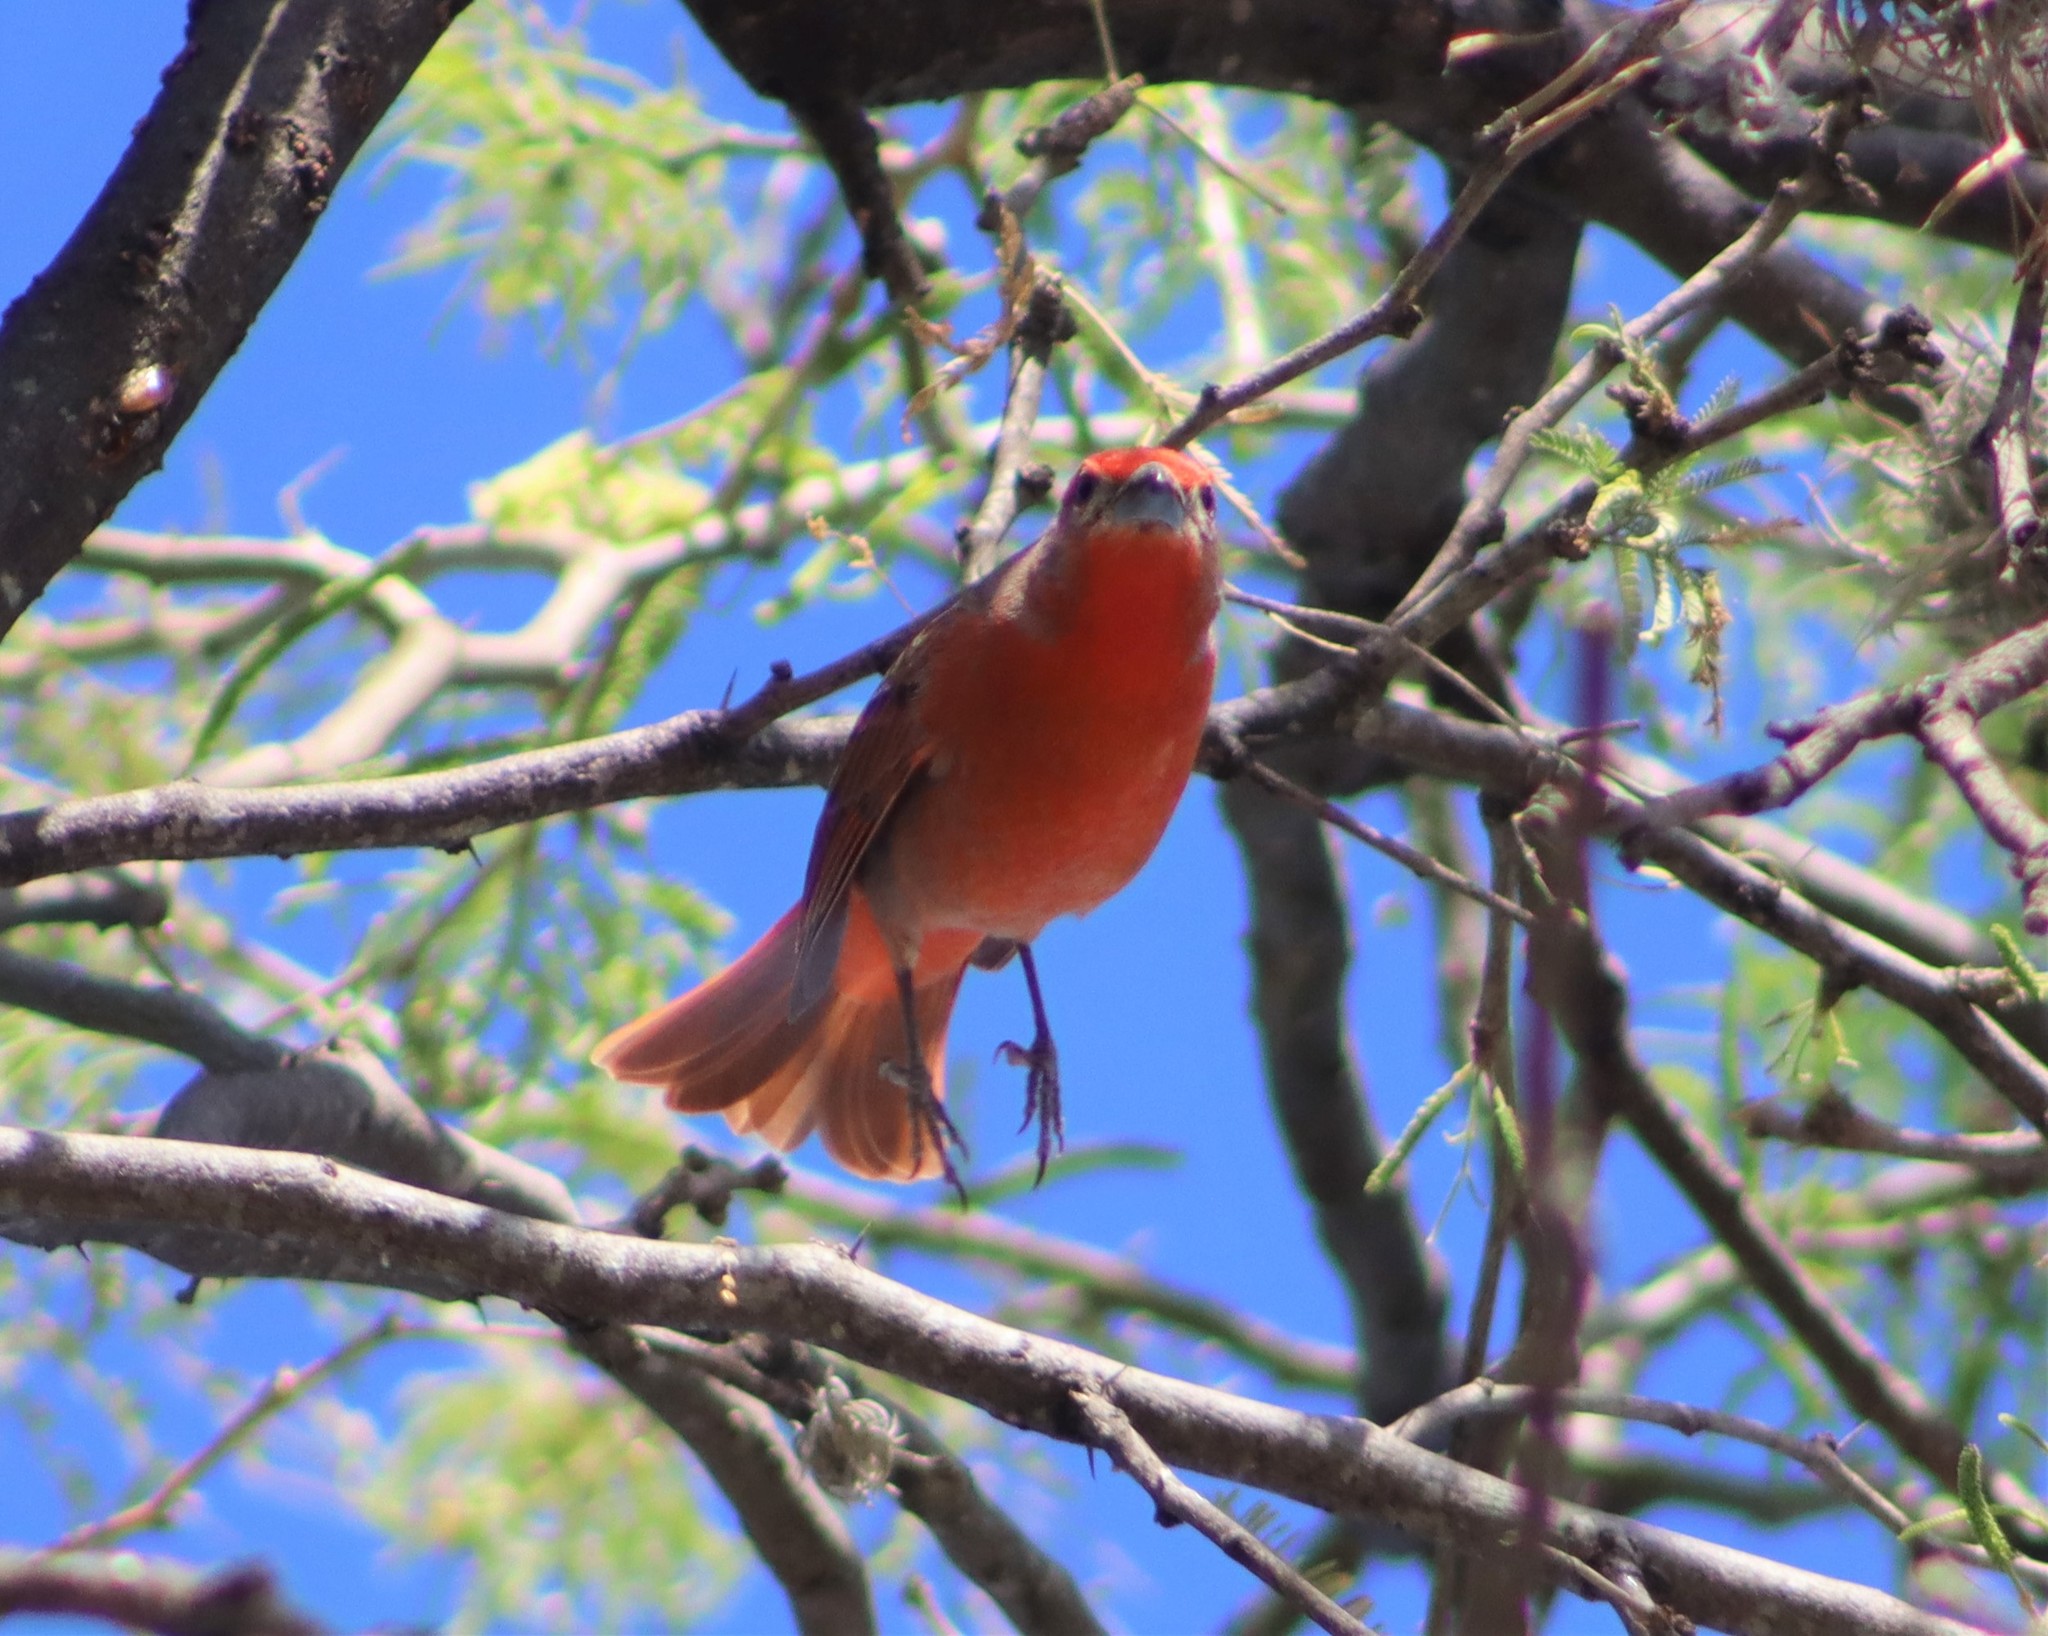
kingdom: Animalia
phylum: Chordata
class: Aves
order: Passeriformes
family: Cardinalidae
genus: Piranga
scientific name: Piranga flava
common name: Red tanager
